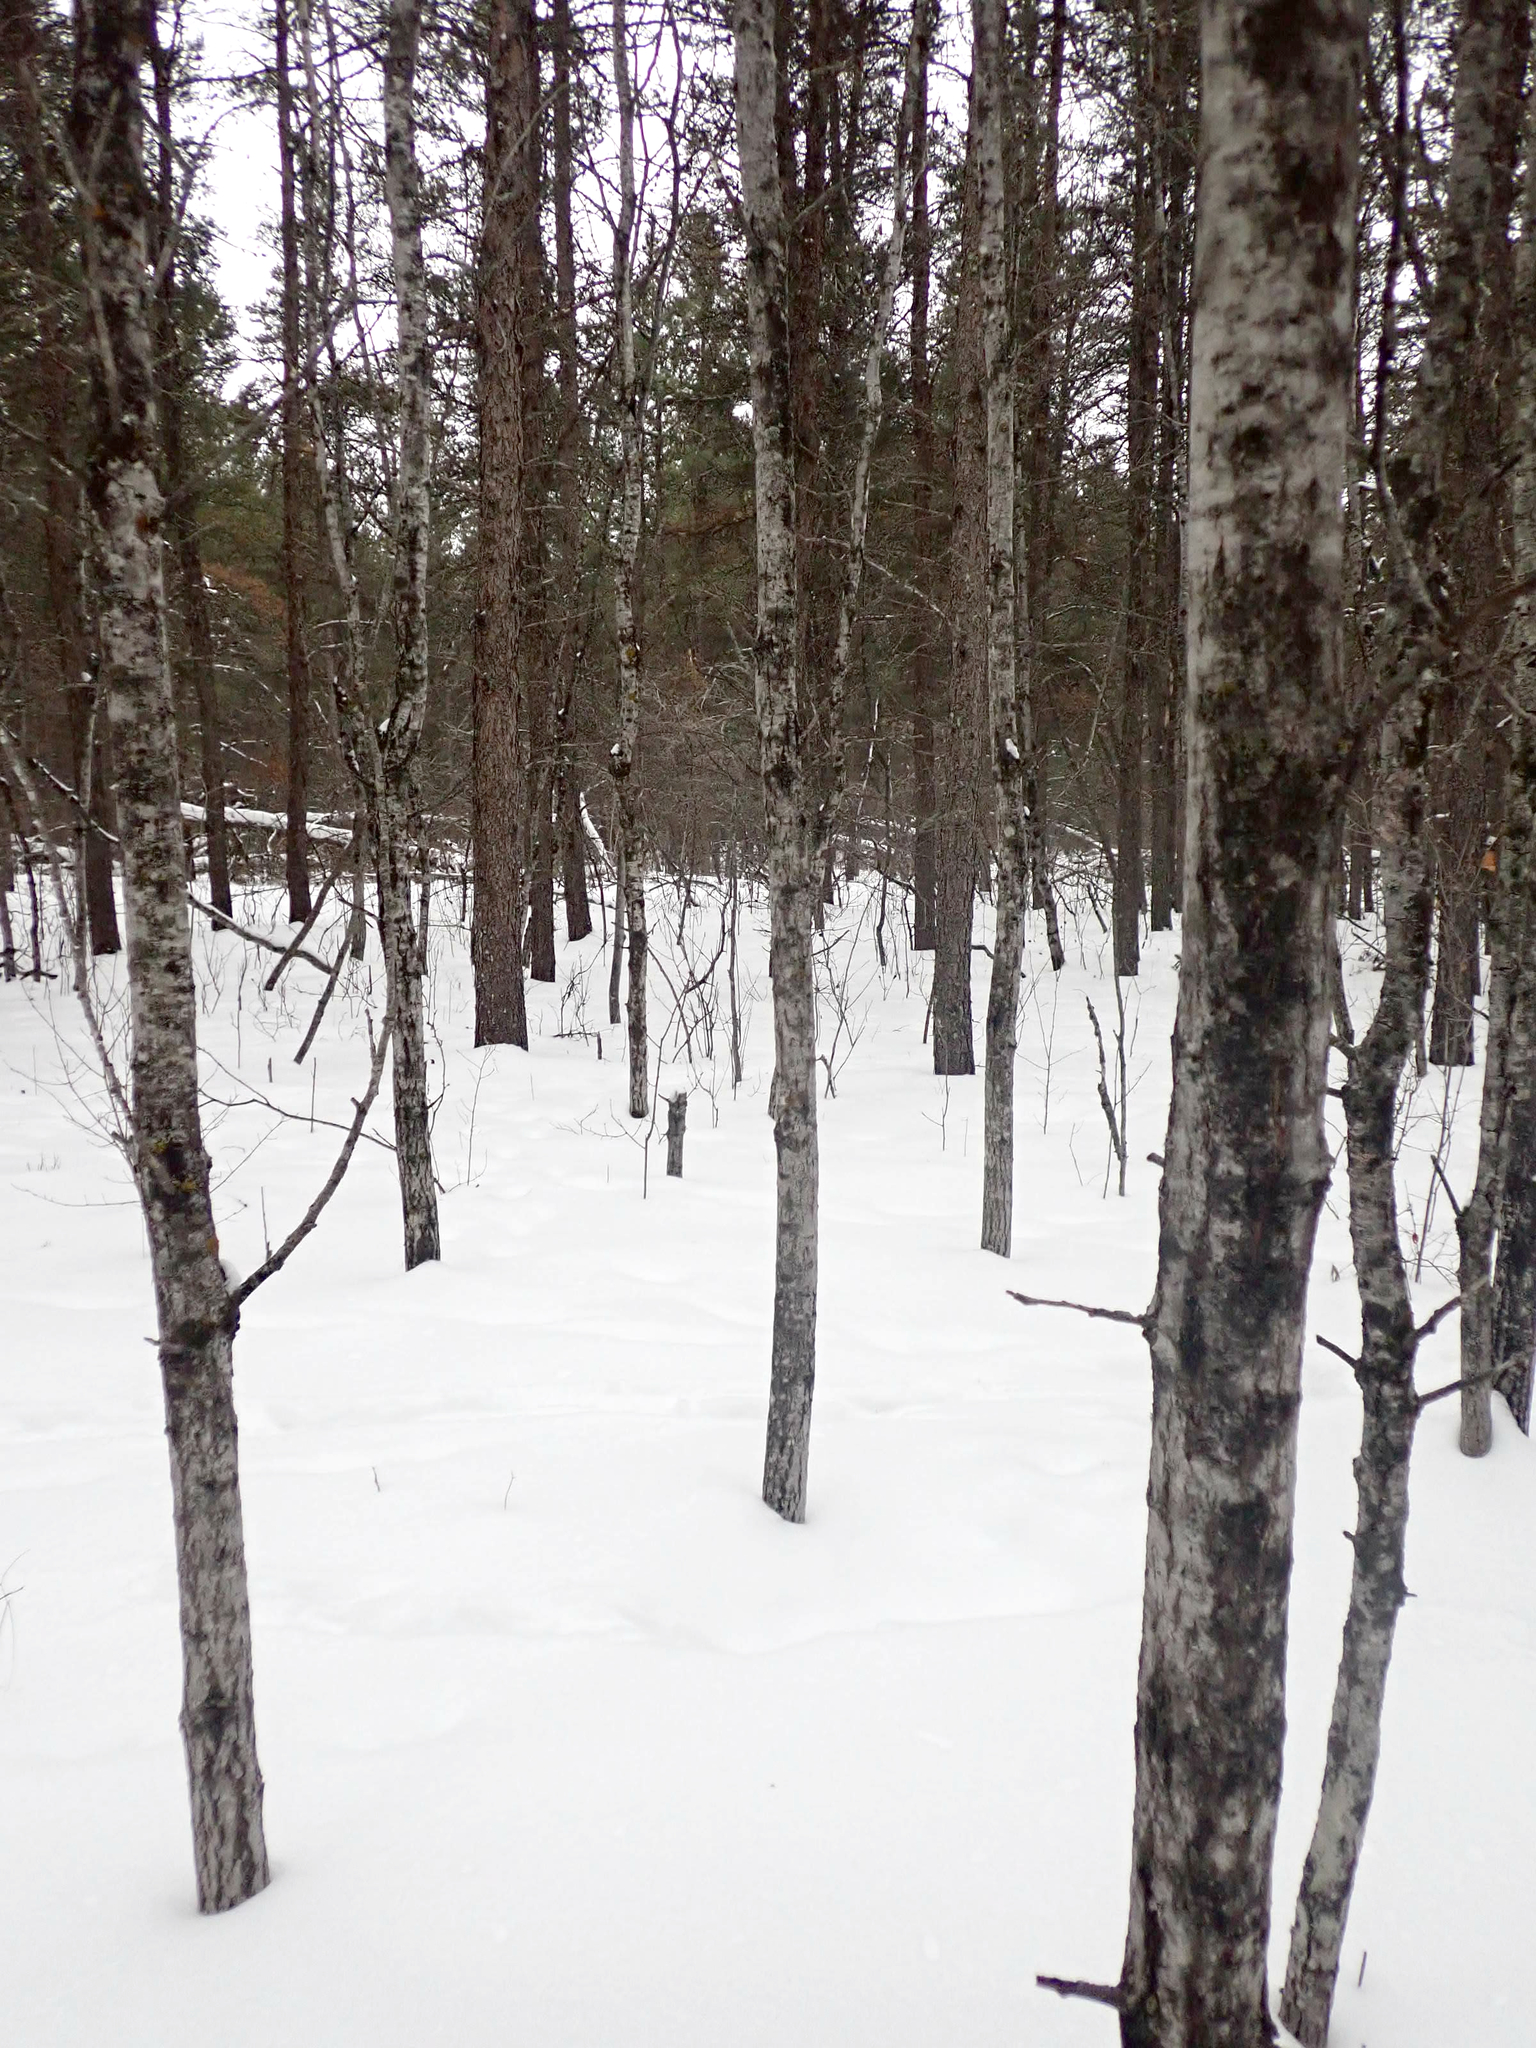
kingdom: Plantae
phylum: Tracheophyta
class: Magnoliopsida
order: Malpighiales
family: Salicaceae
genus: Populus
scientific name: Populus tremuloides
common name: Quaking aspen
